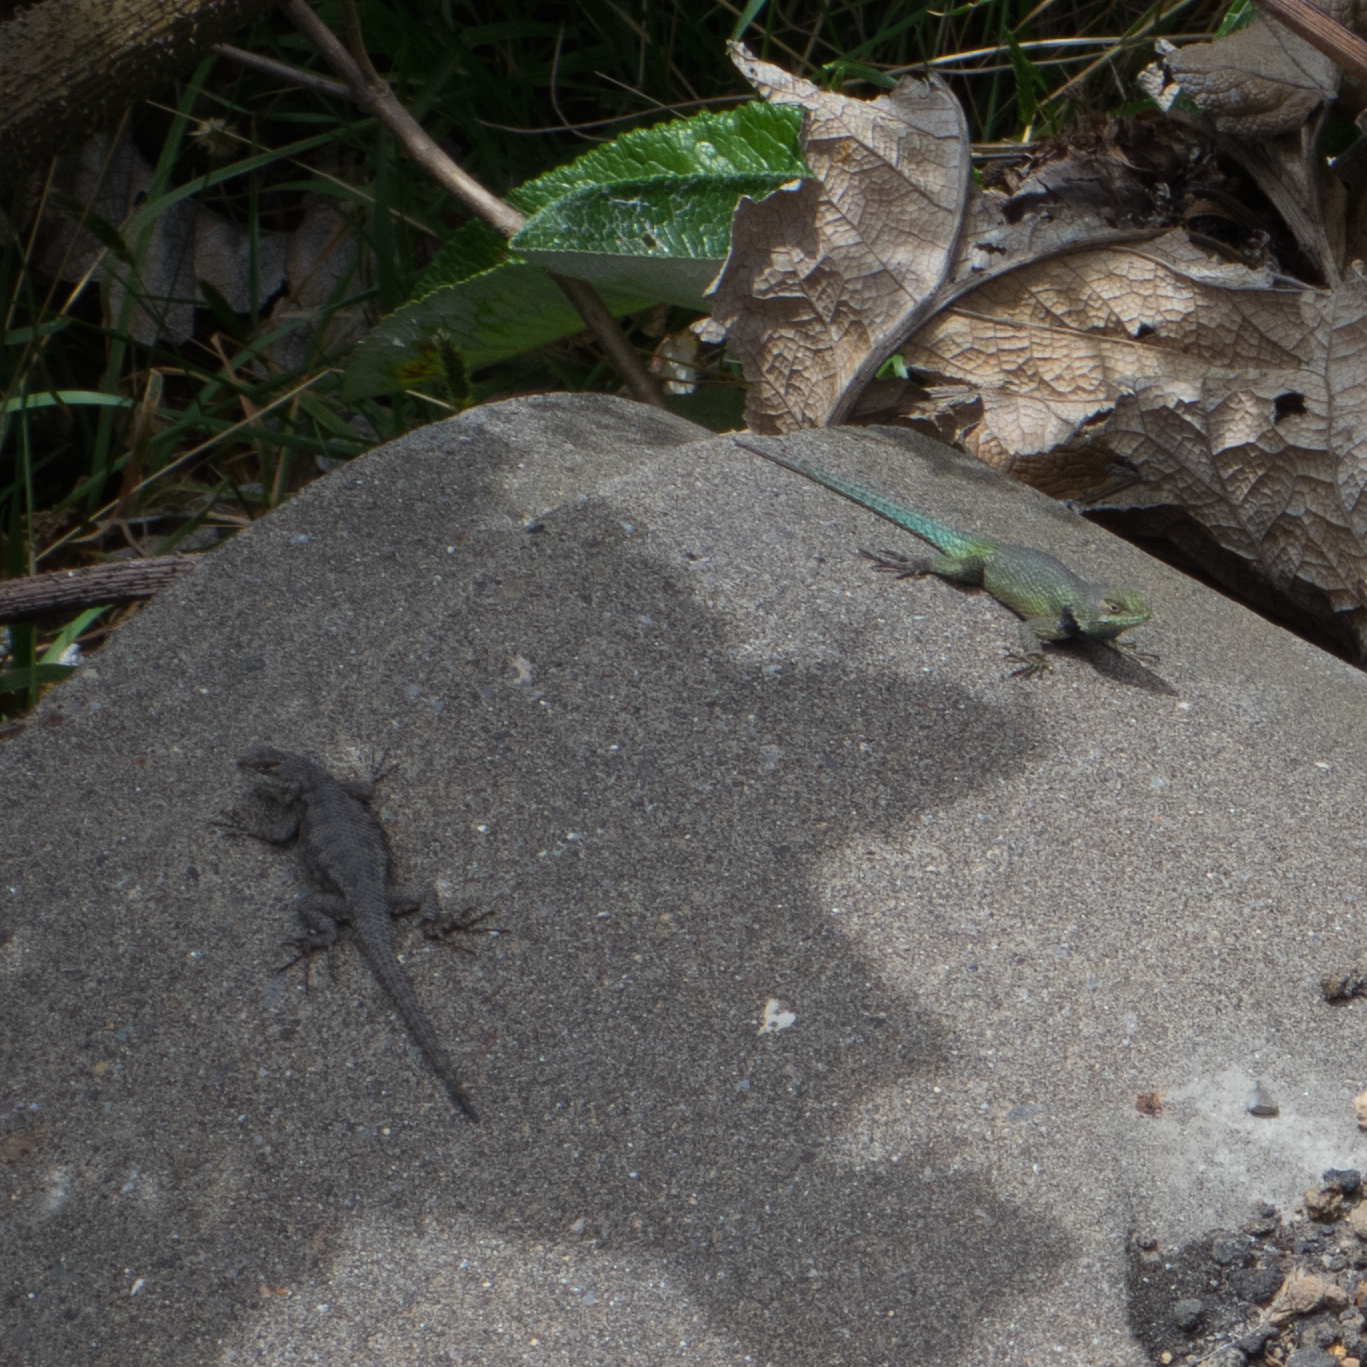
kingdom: Animalia
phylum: Chordata
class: Squamata
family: Phrynosomatidae
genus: Sceloporus
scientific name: Sceloporus malachiticus
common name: Green spiny lizard
